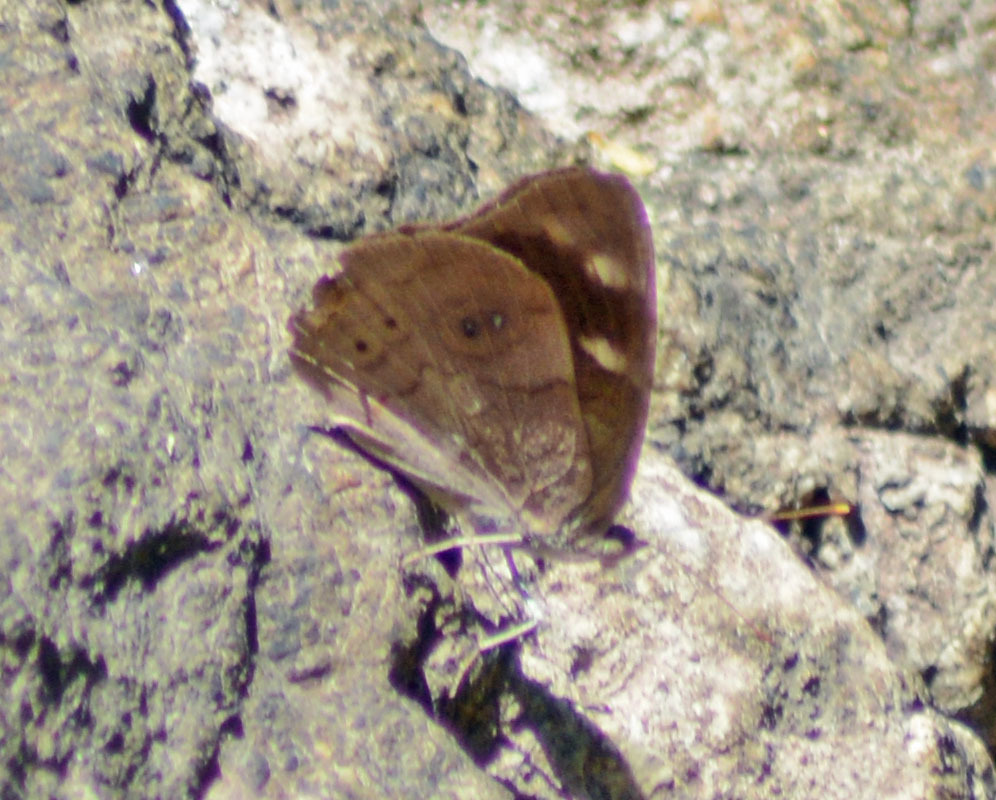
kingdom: Animalia
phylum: Arthropoda
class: Insecta
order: Lepidoptera
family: Nymphalidae
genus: Eunica
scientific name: Eunica monima
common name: Dingy purplewing
